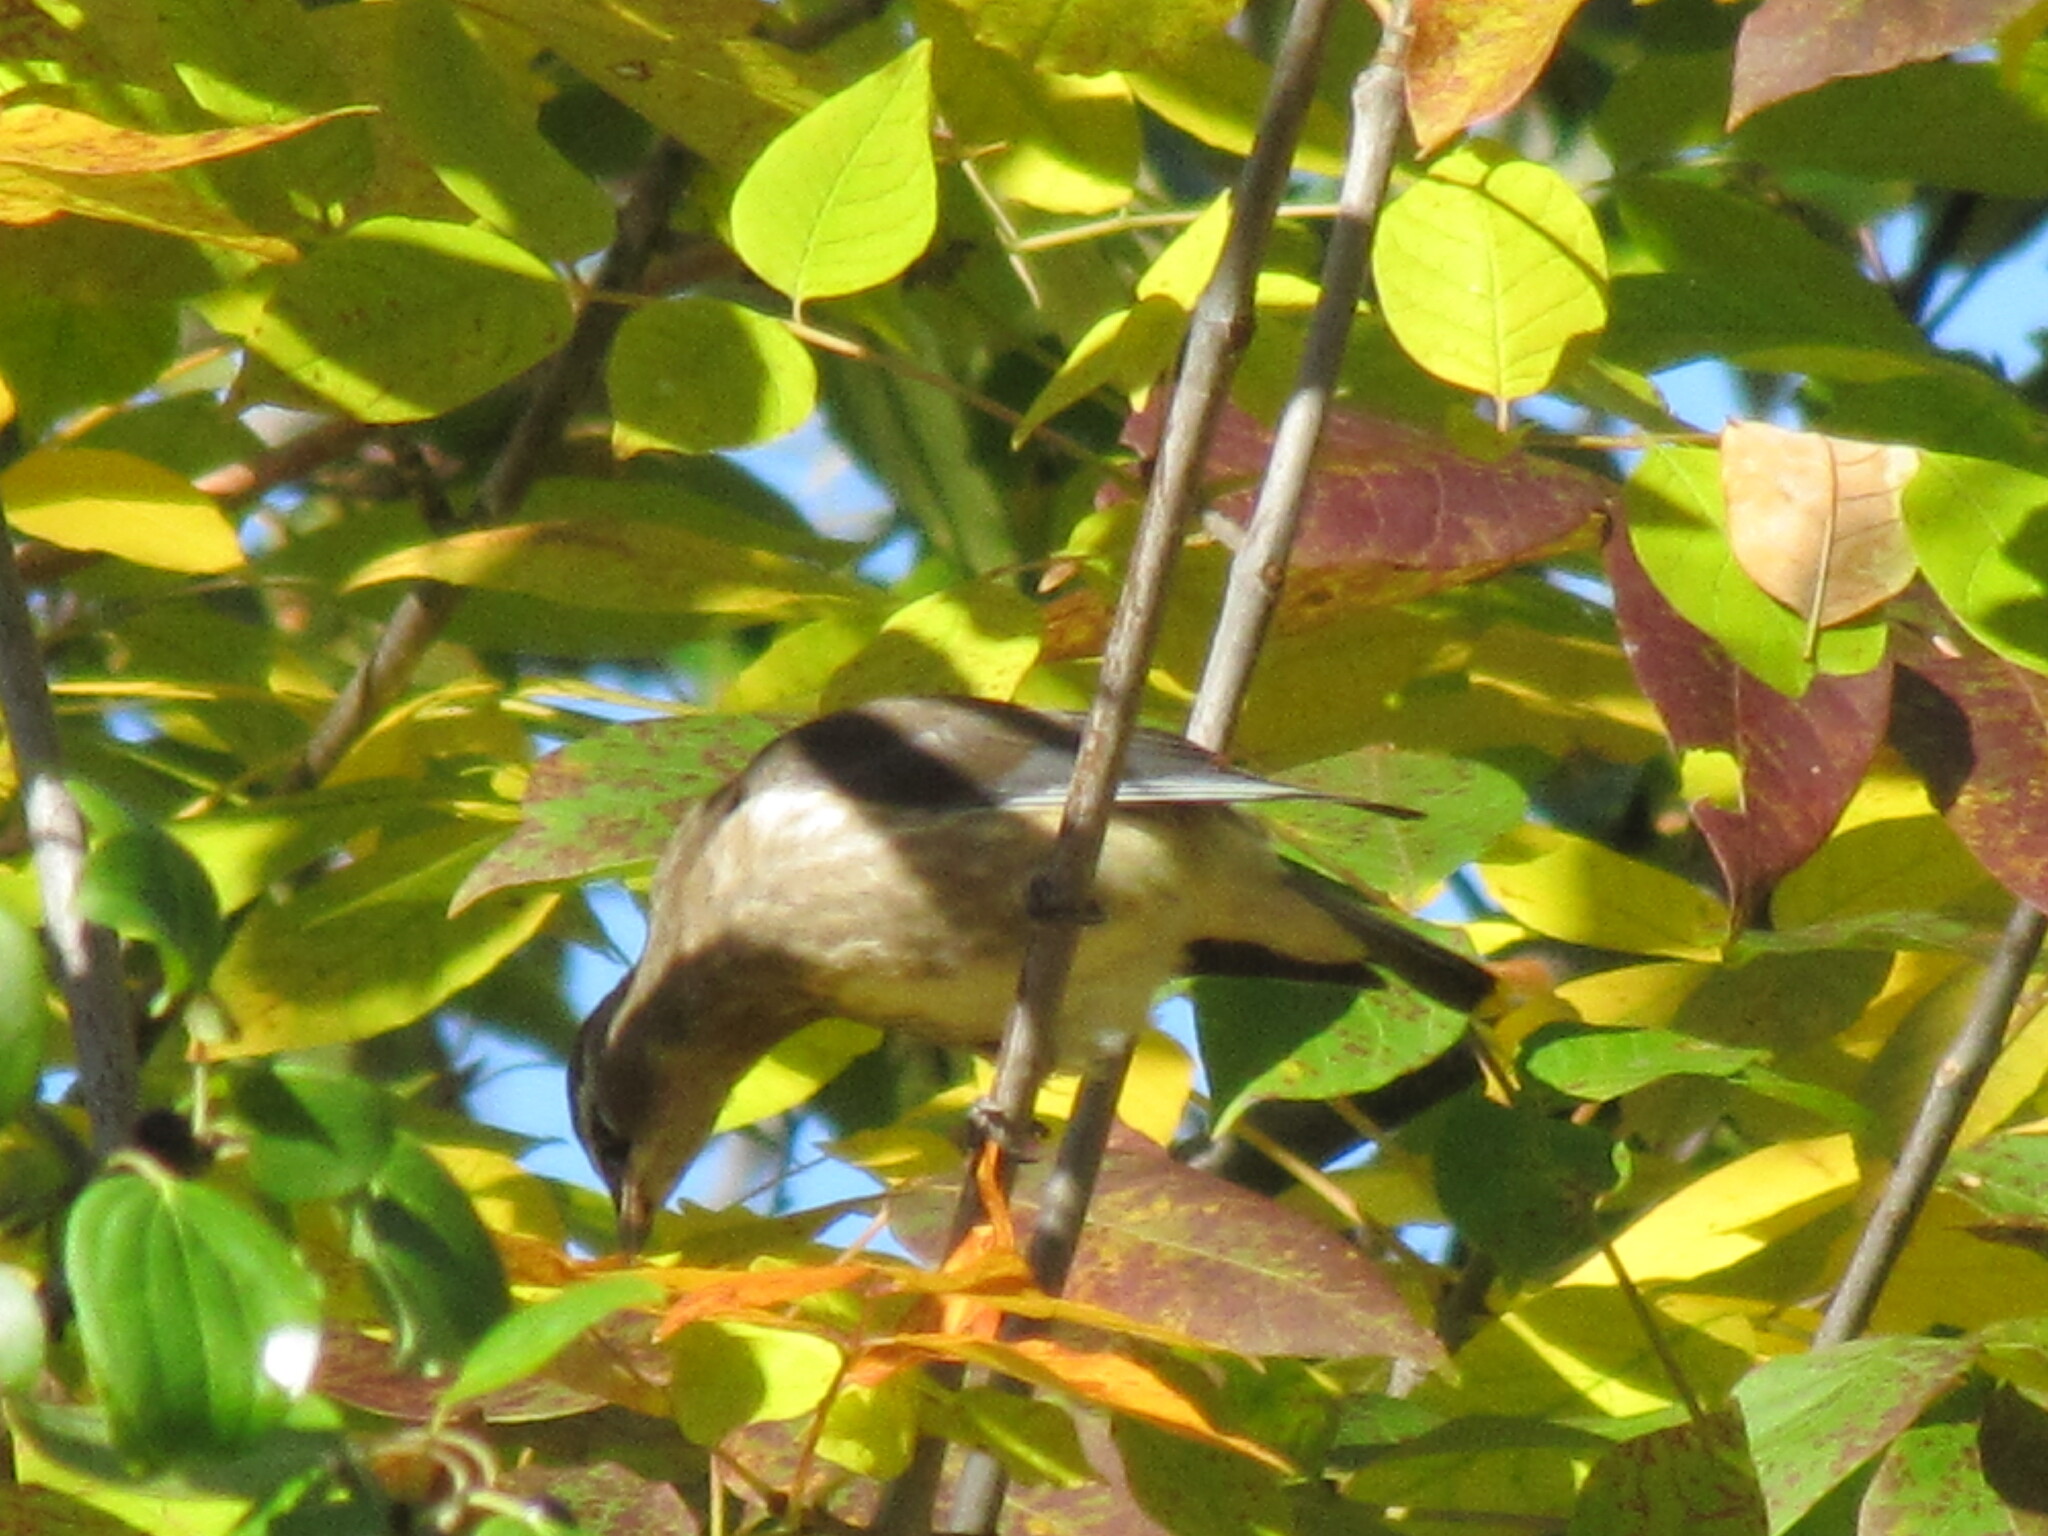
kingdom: Animalia
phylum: Chordata
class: Aves
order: Passeriformes
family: Bombycillidae
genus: Bombycilla
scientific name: Bombycilla cedrorum
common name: Cedar waxwing
